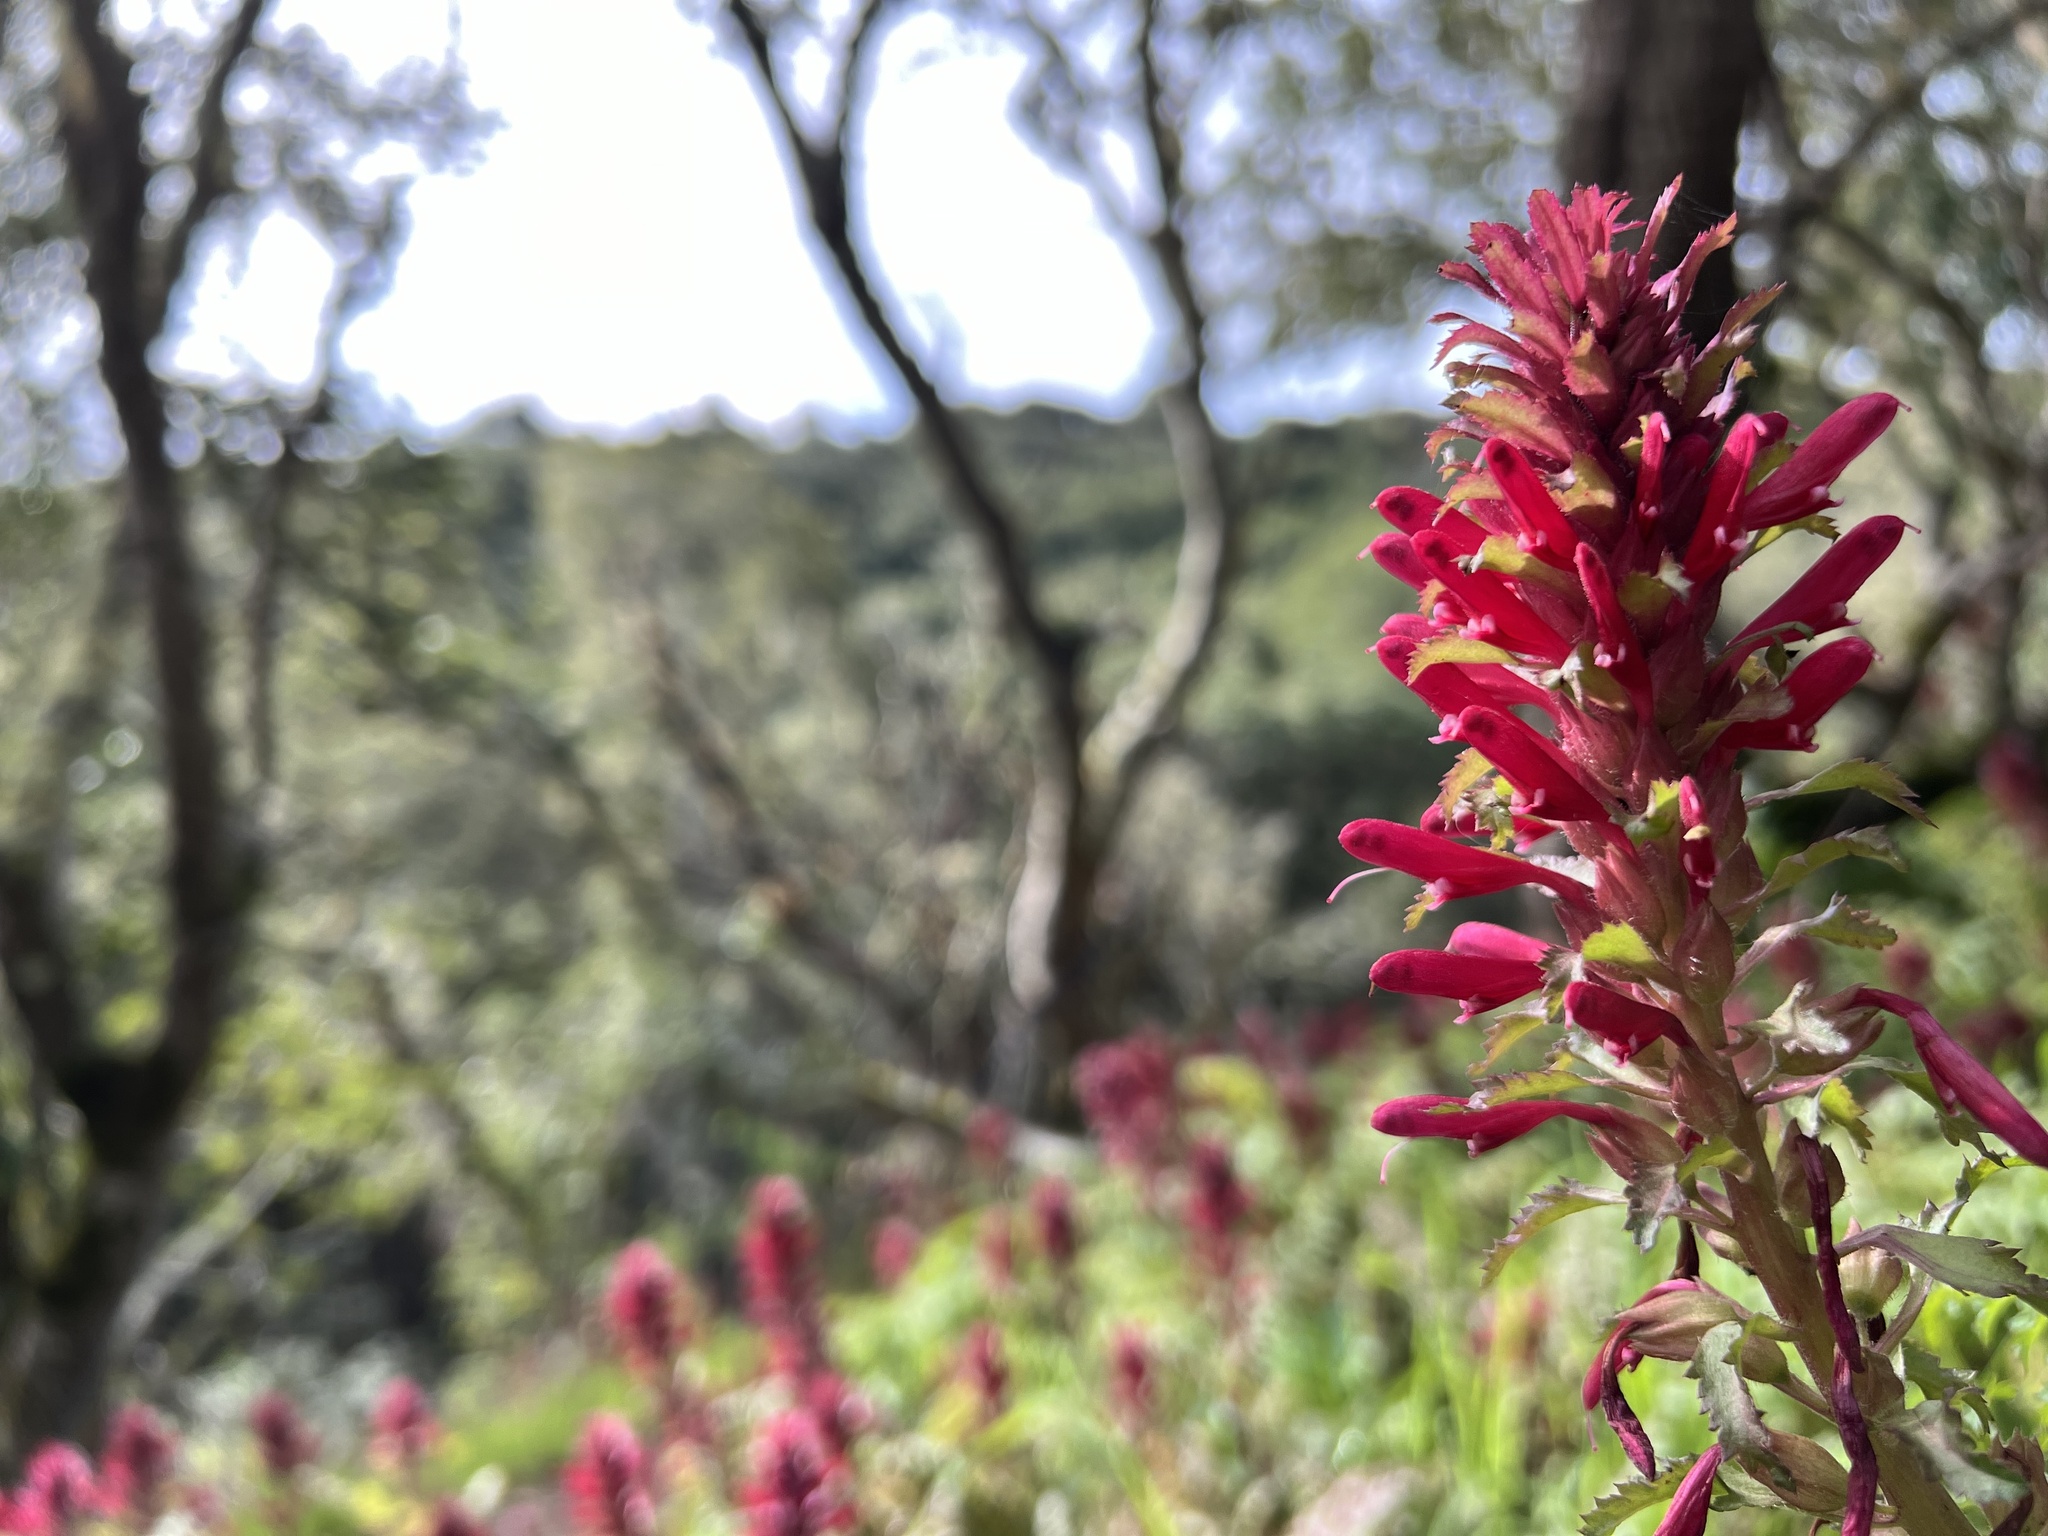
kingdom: Plantae
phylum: Tracheophyta
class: Magnoliopsida
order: Lamiales
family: Orobanchaceae
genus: Pedicularis
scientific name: Pedicularis densiflora
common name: Indian warrior
